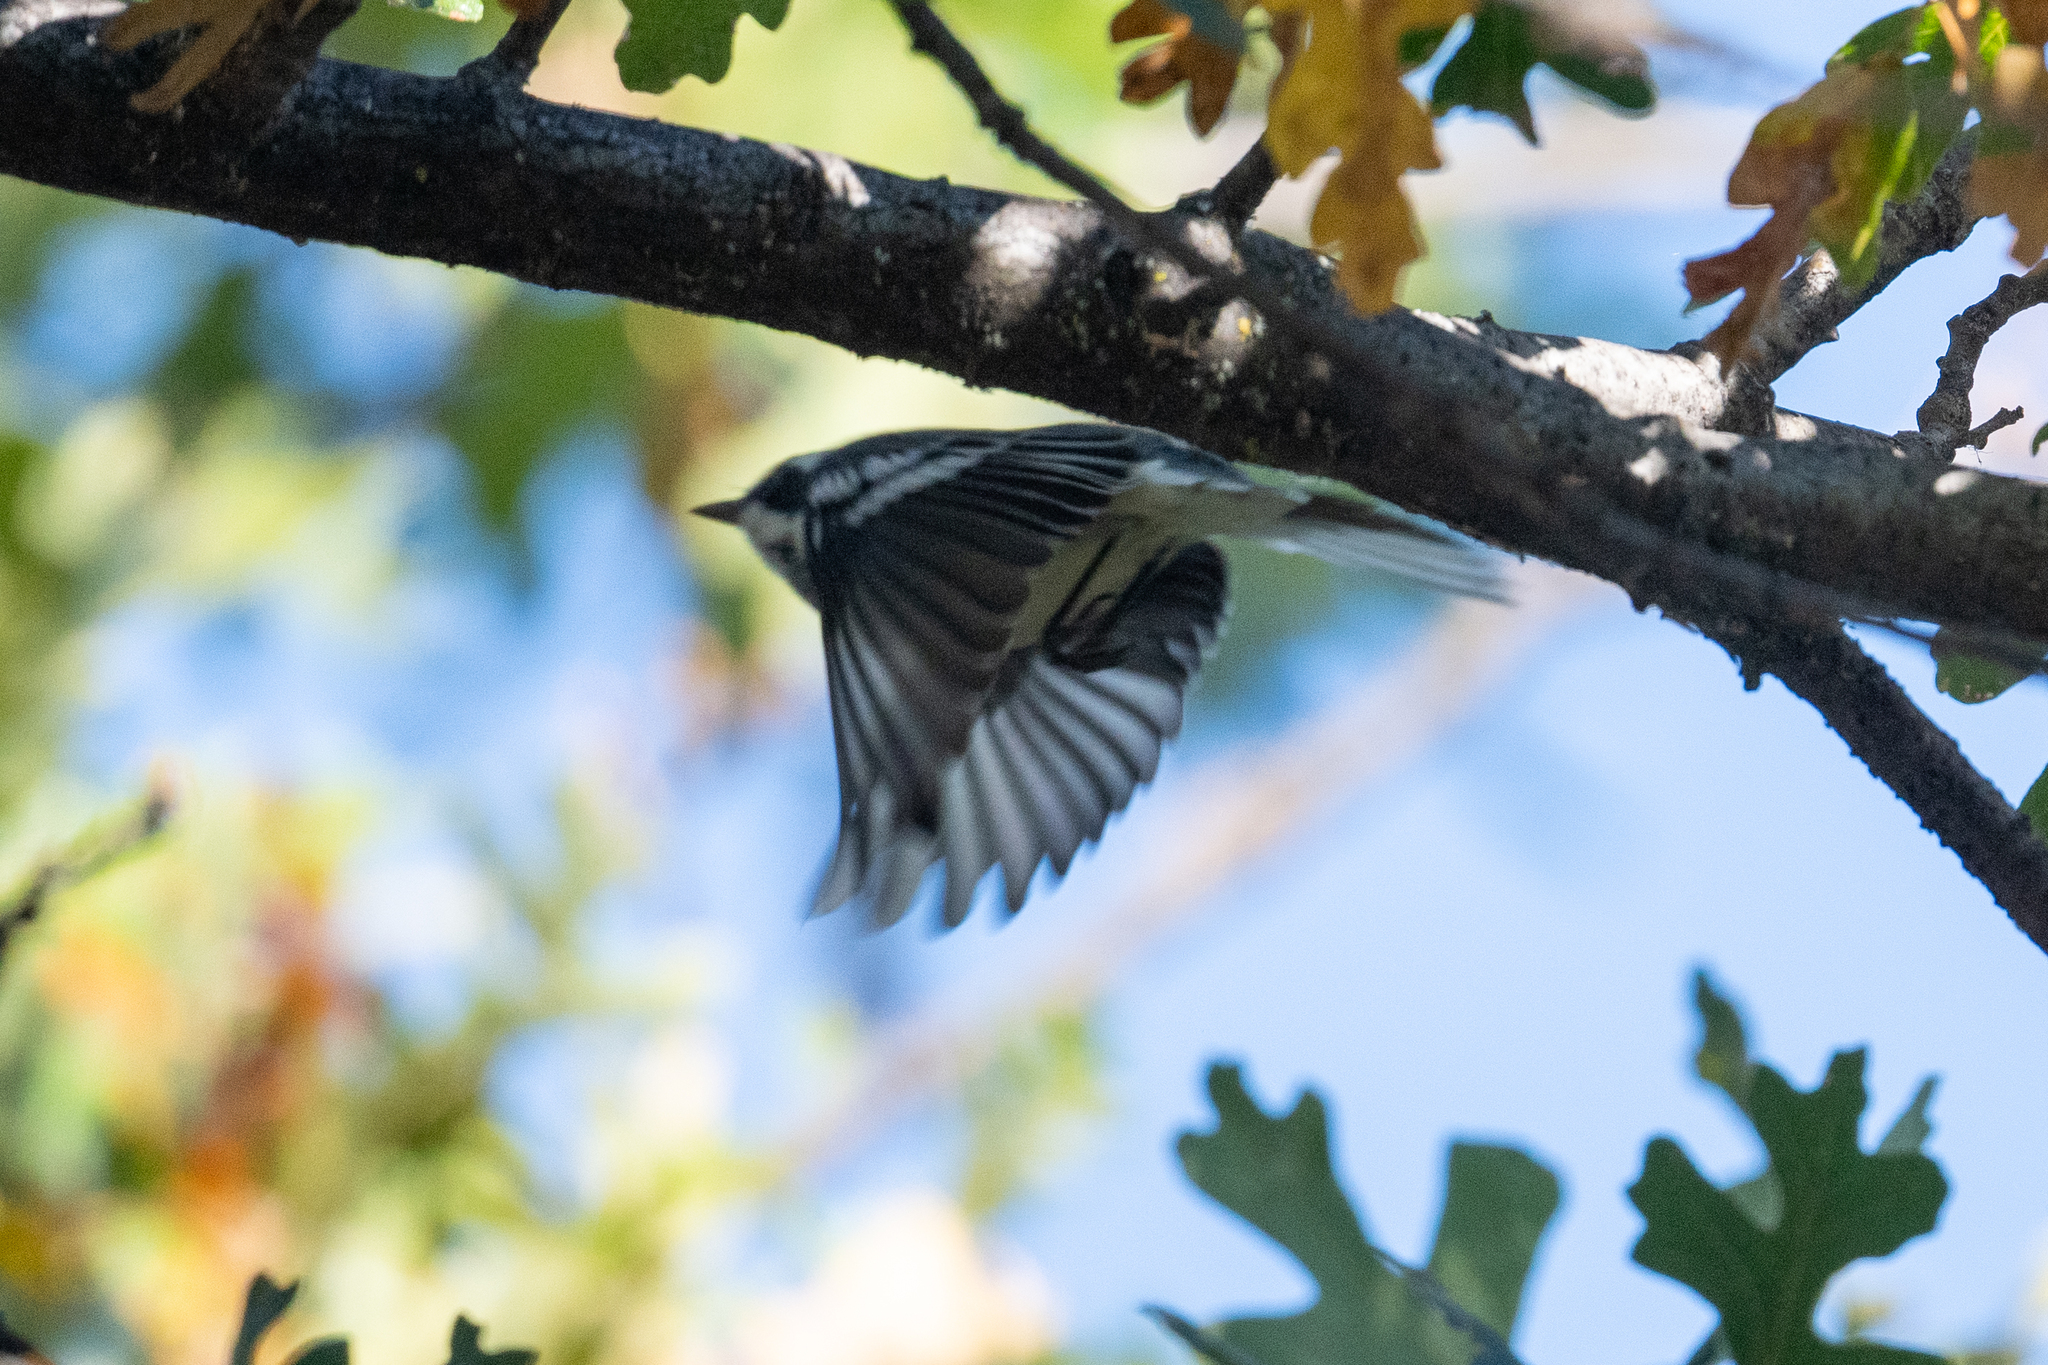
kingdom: Animalia
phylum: Chordata
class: Aves
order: Passeriformes
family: Parulidae
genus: Setophaga
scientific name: Setophaga nigrescens
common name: Black-throated gray warbler
